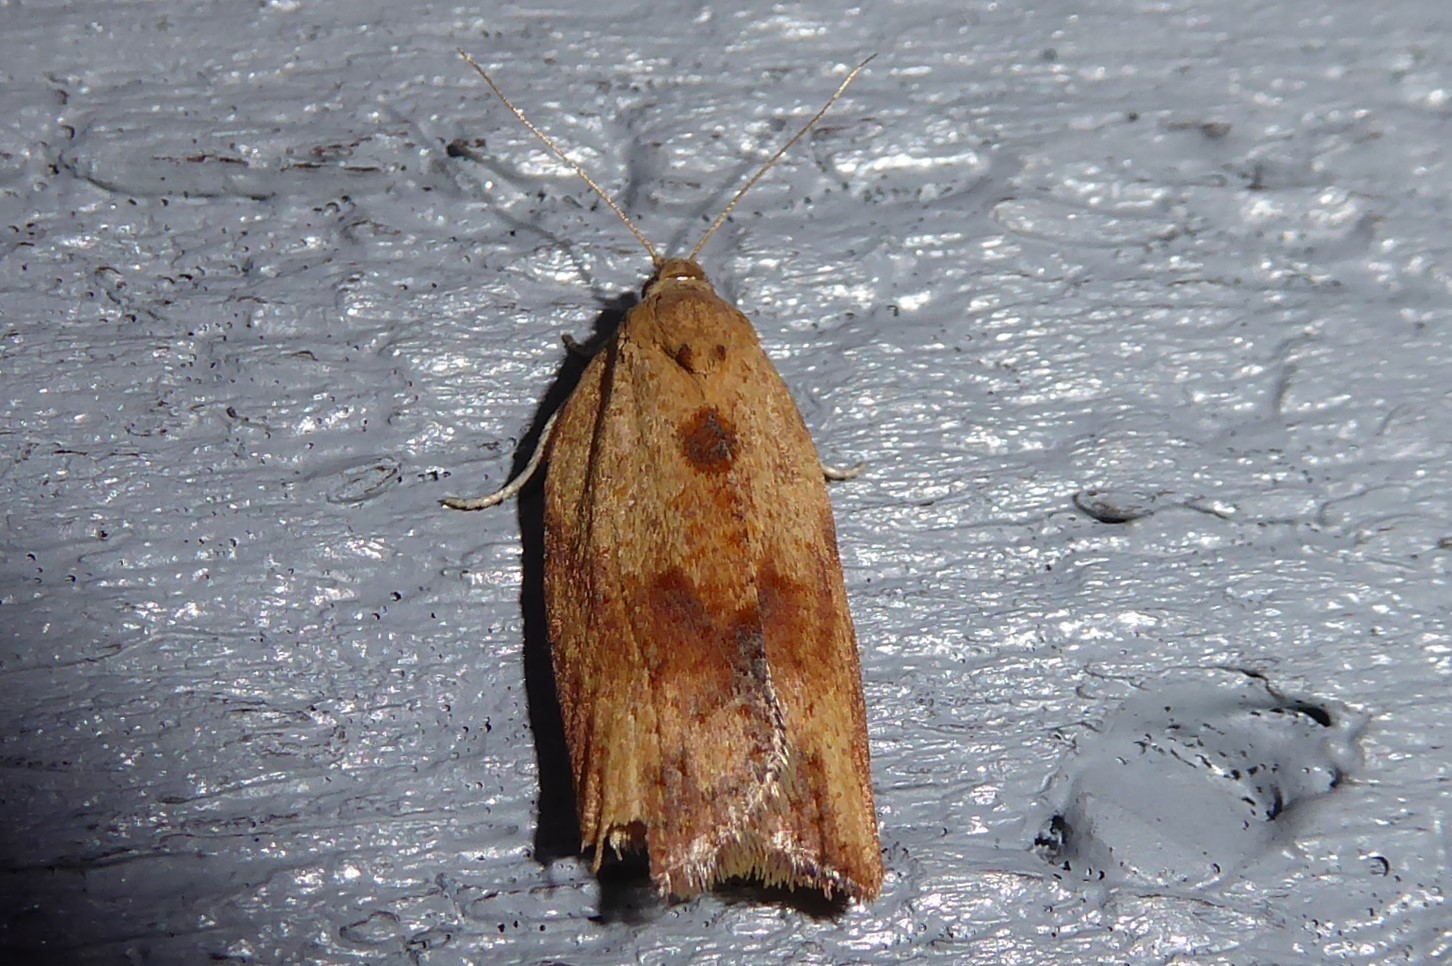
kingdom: Animalia
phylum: Arthropoda
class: Insecta
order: Lepidoptera
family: Tortricidae
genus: Epiphyas
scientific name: Epiphyas postvittana
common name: Light brown apple moth
